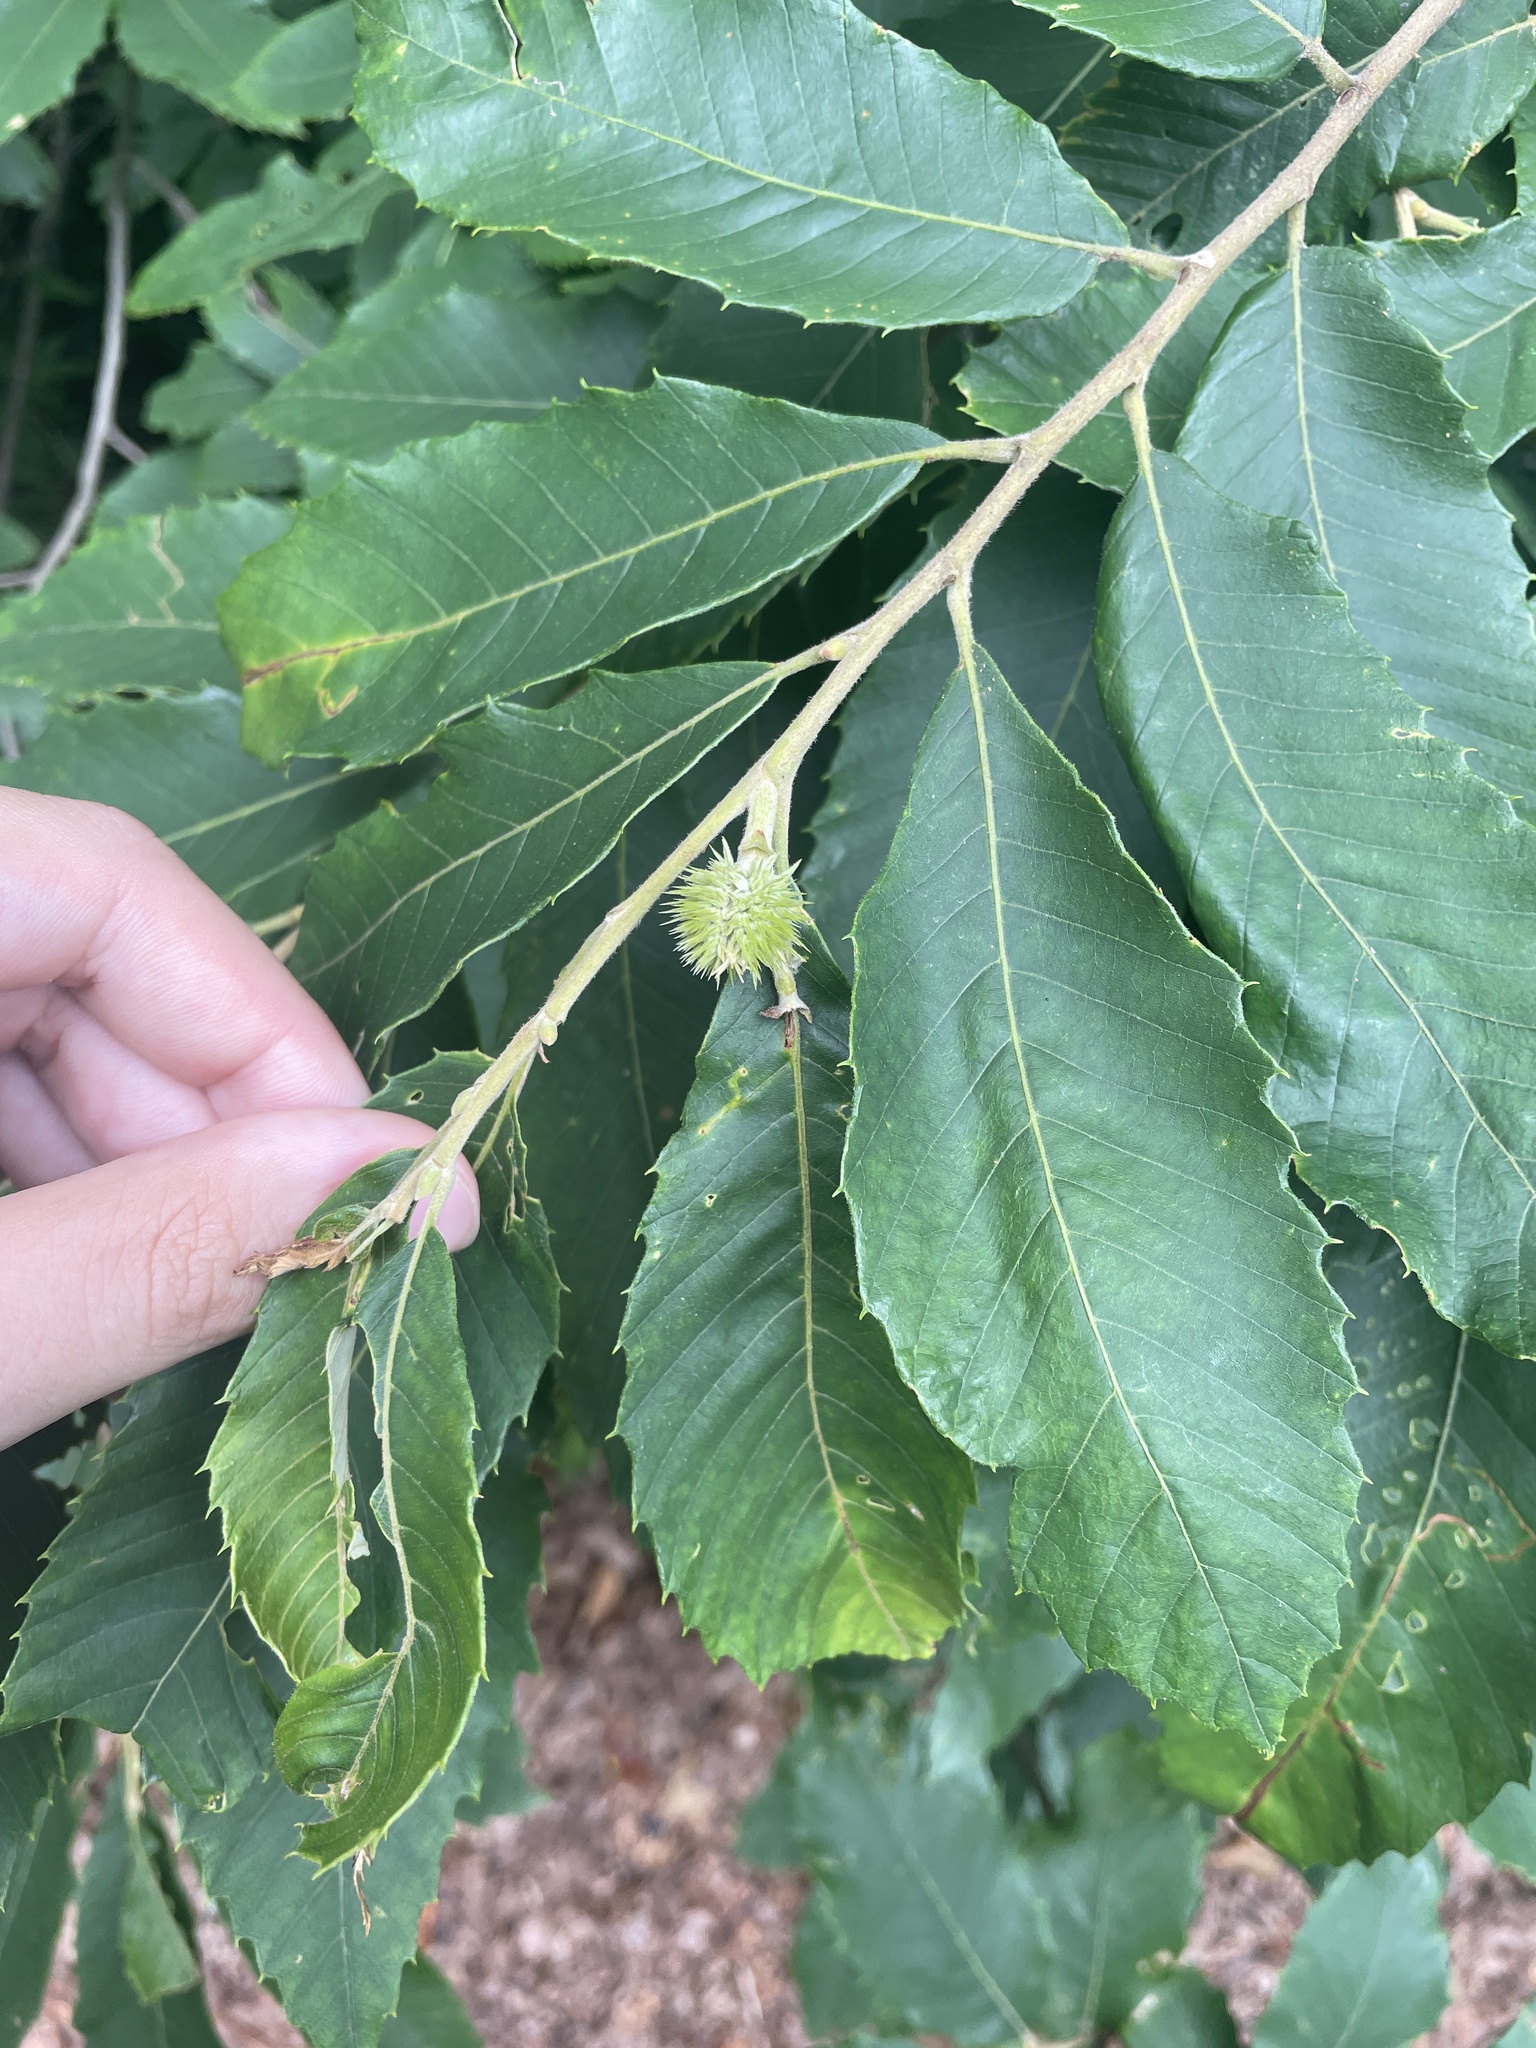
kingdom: Plantae
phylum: Tracheophyta
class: Magnoliopsida
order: Fagales
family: Fagaceae
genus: Castanea
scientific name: Castanea pumila
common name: Chinkapin
